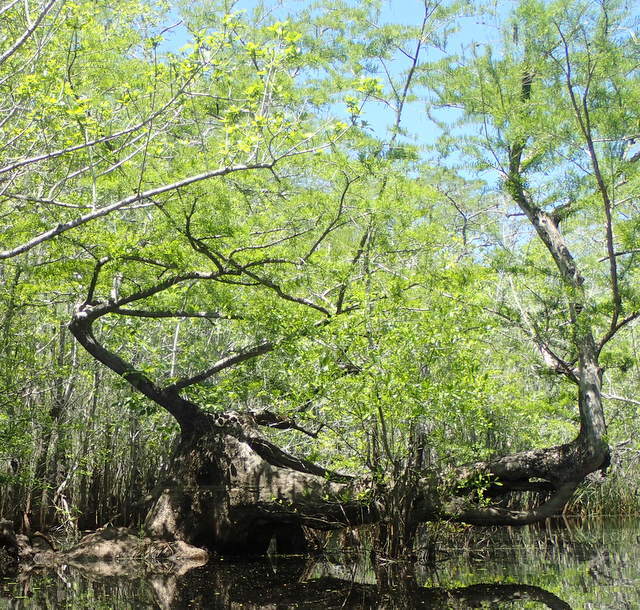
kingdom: Plantae
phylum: Tracheophyta
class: Pinopsida
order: Pinales
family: Cupressaceae
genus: Taxodium
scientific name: Taxodium distichum
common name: Bald cypress
